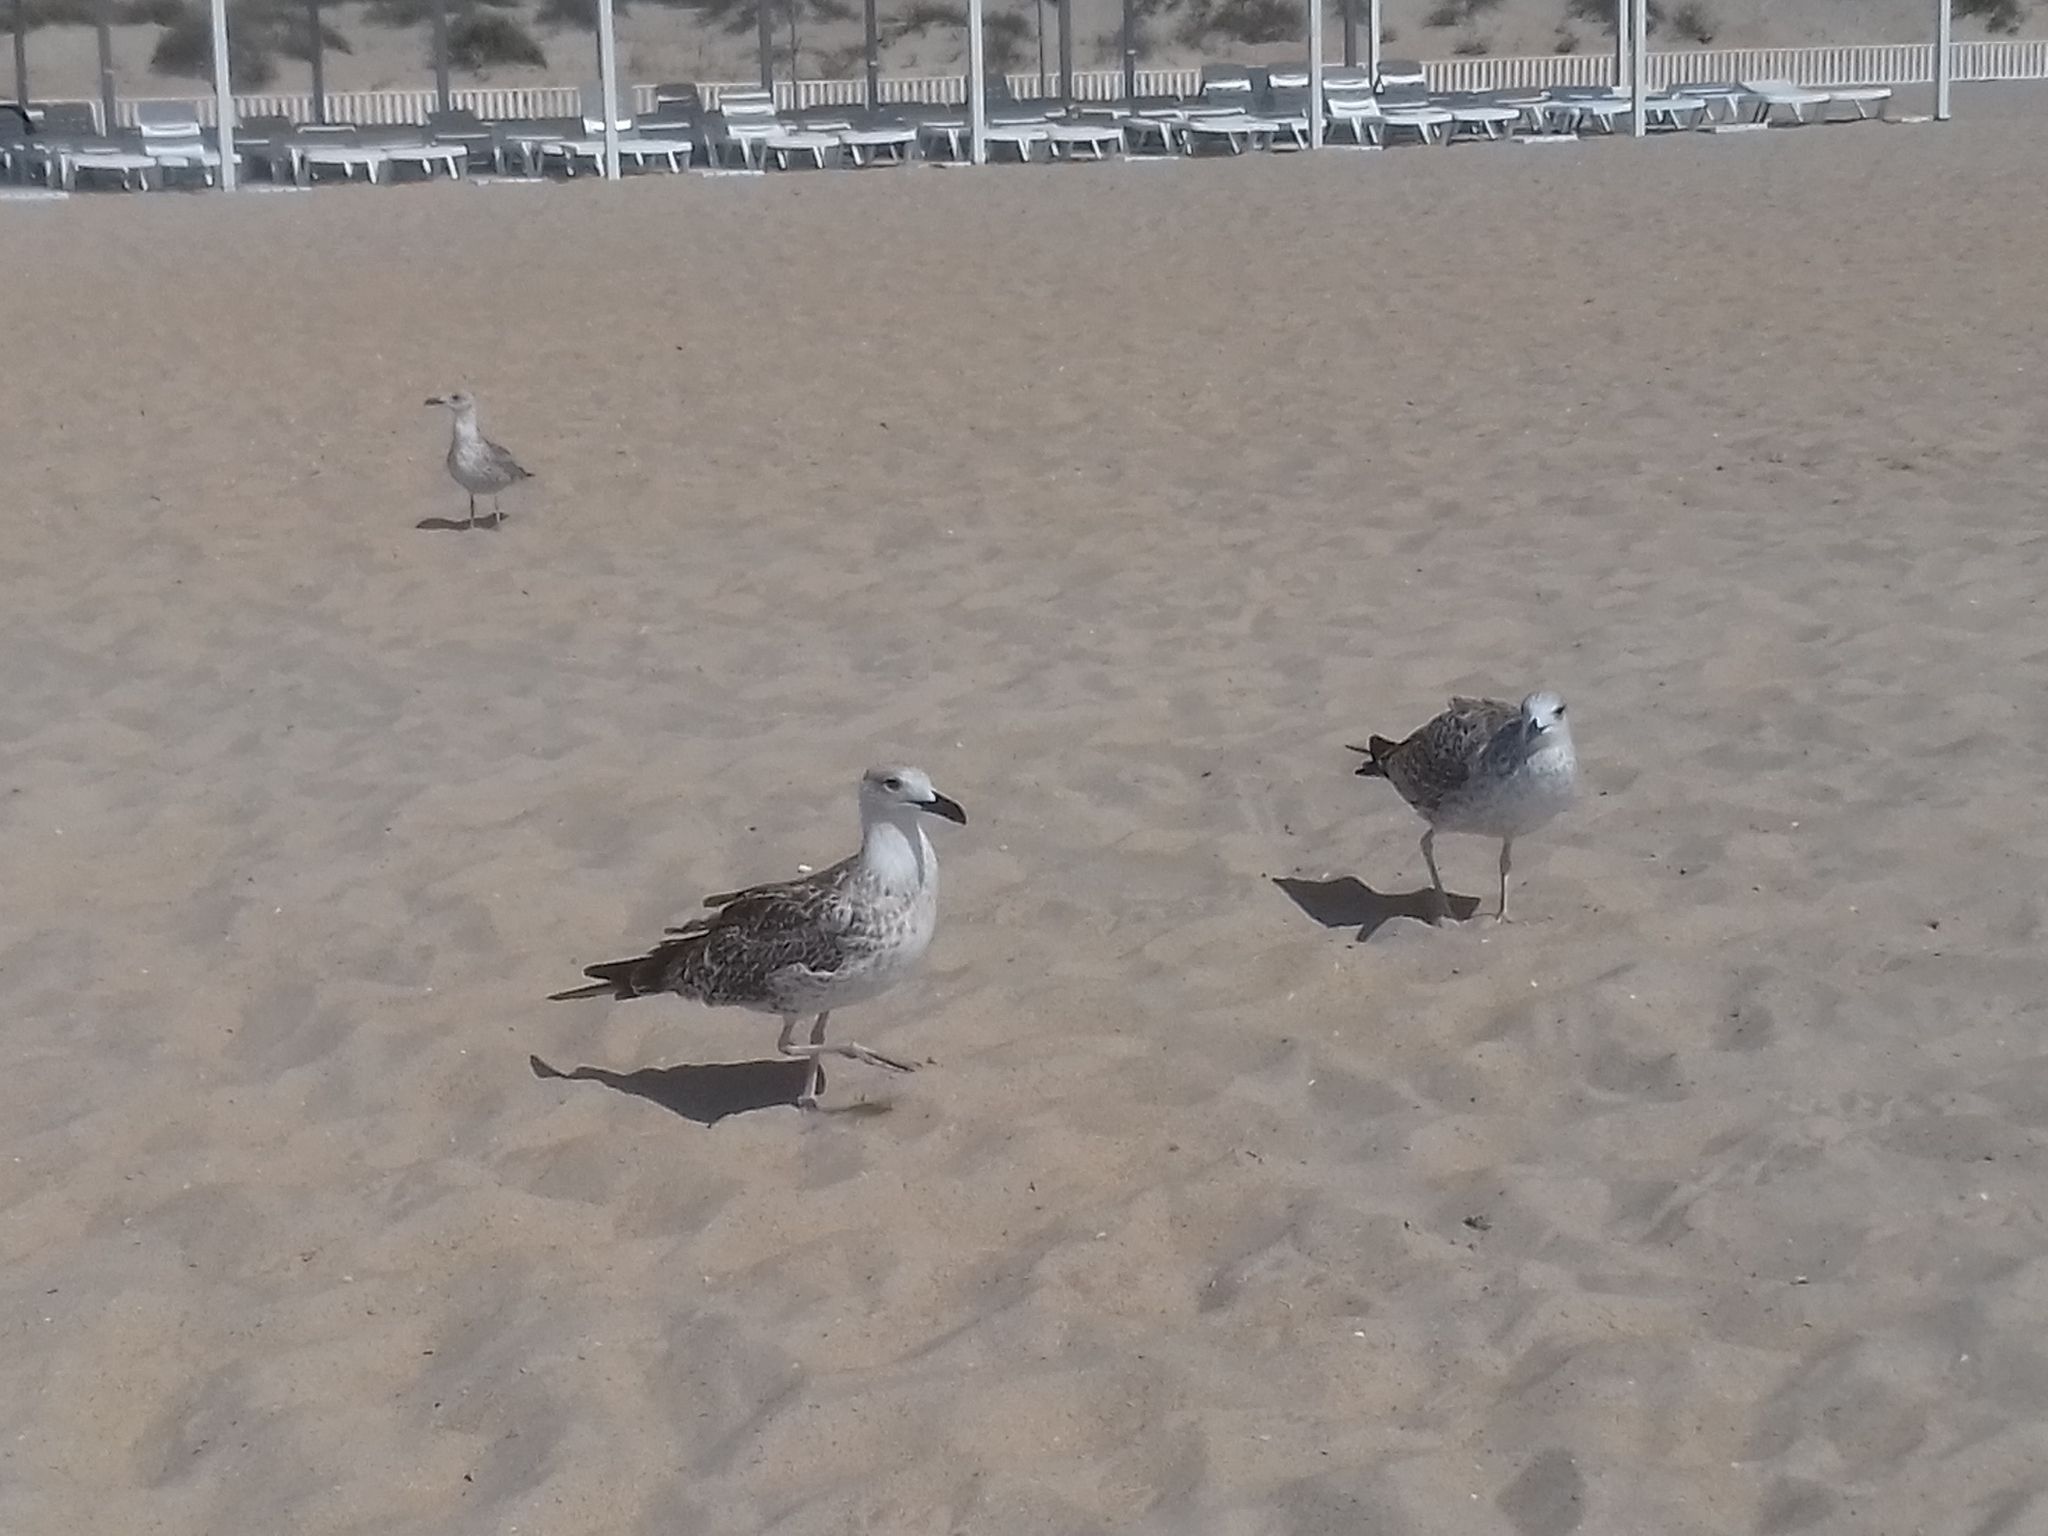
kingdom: Animalia
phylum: Chordata
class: Aves
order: Charadriiformes
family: Laridae
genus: Larus
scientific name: Larus michahellis
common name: Yellow-legged gull
